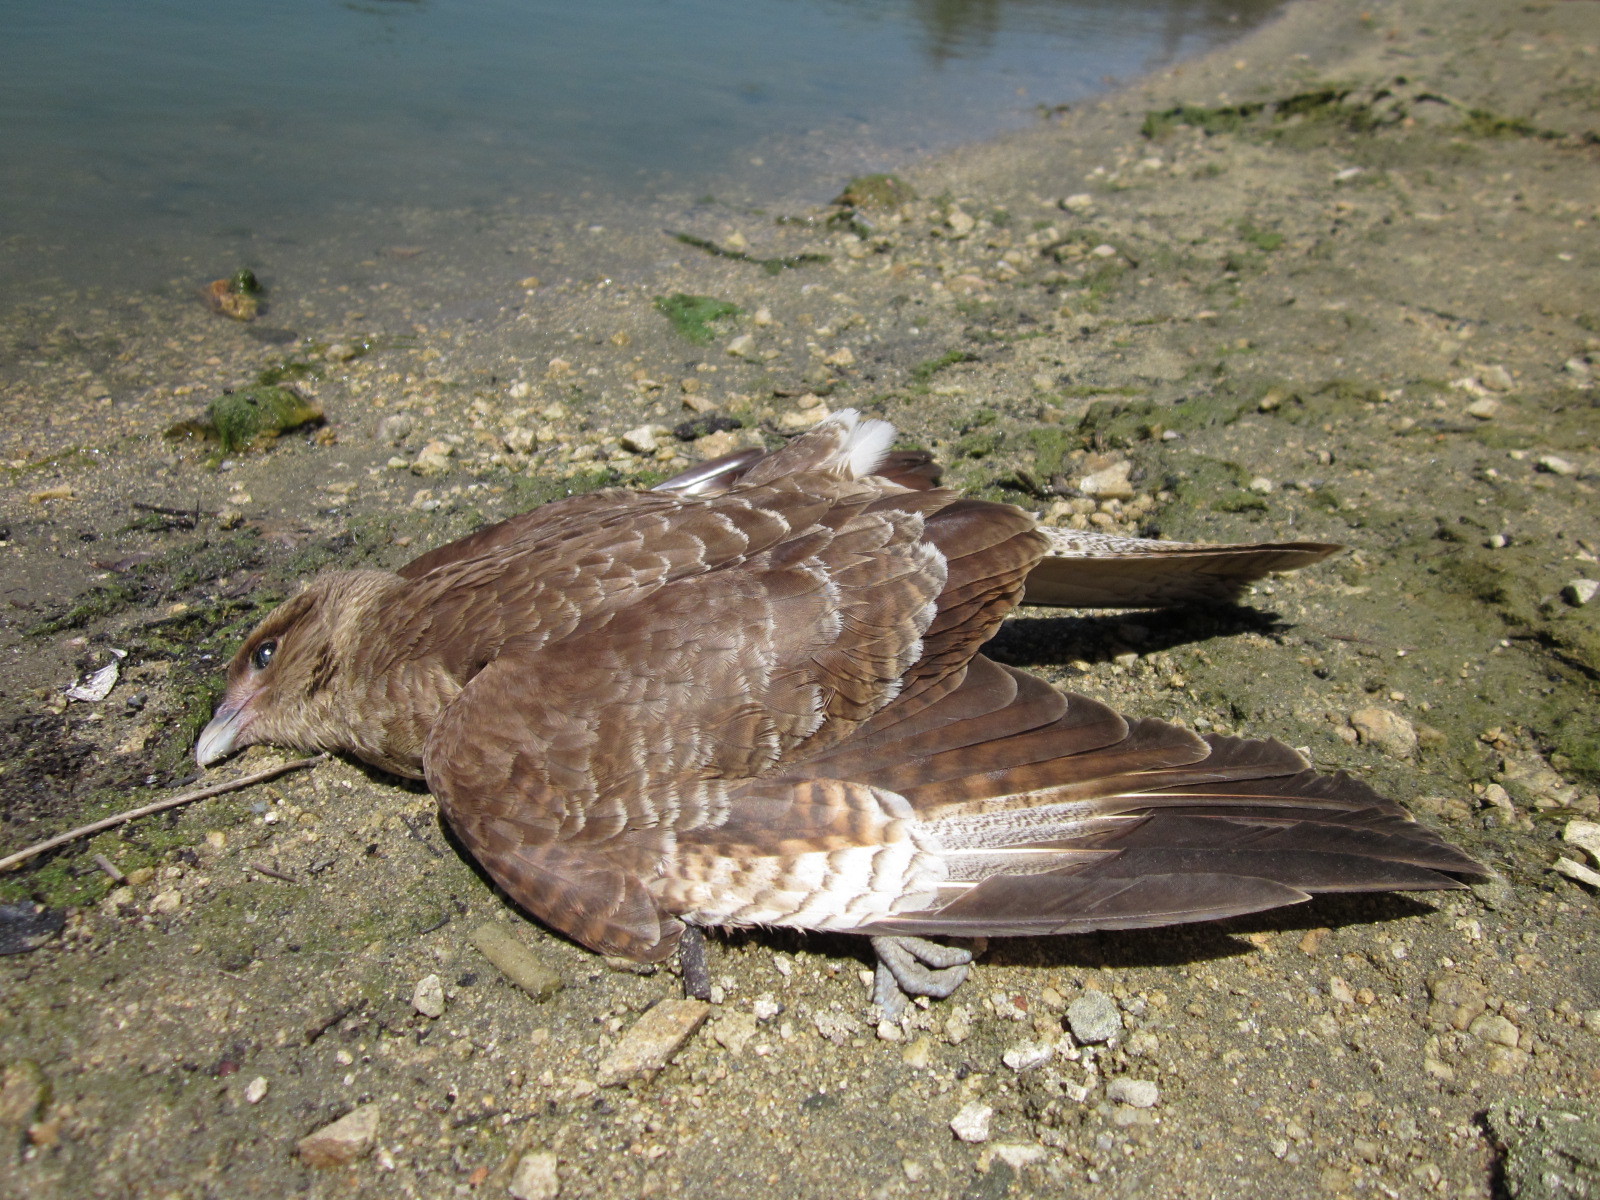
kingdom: Animalia
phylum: Chordata
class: Aves
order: Falconiformes
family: Falconidae
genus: Daptrius
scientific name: Daptrius
